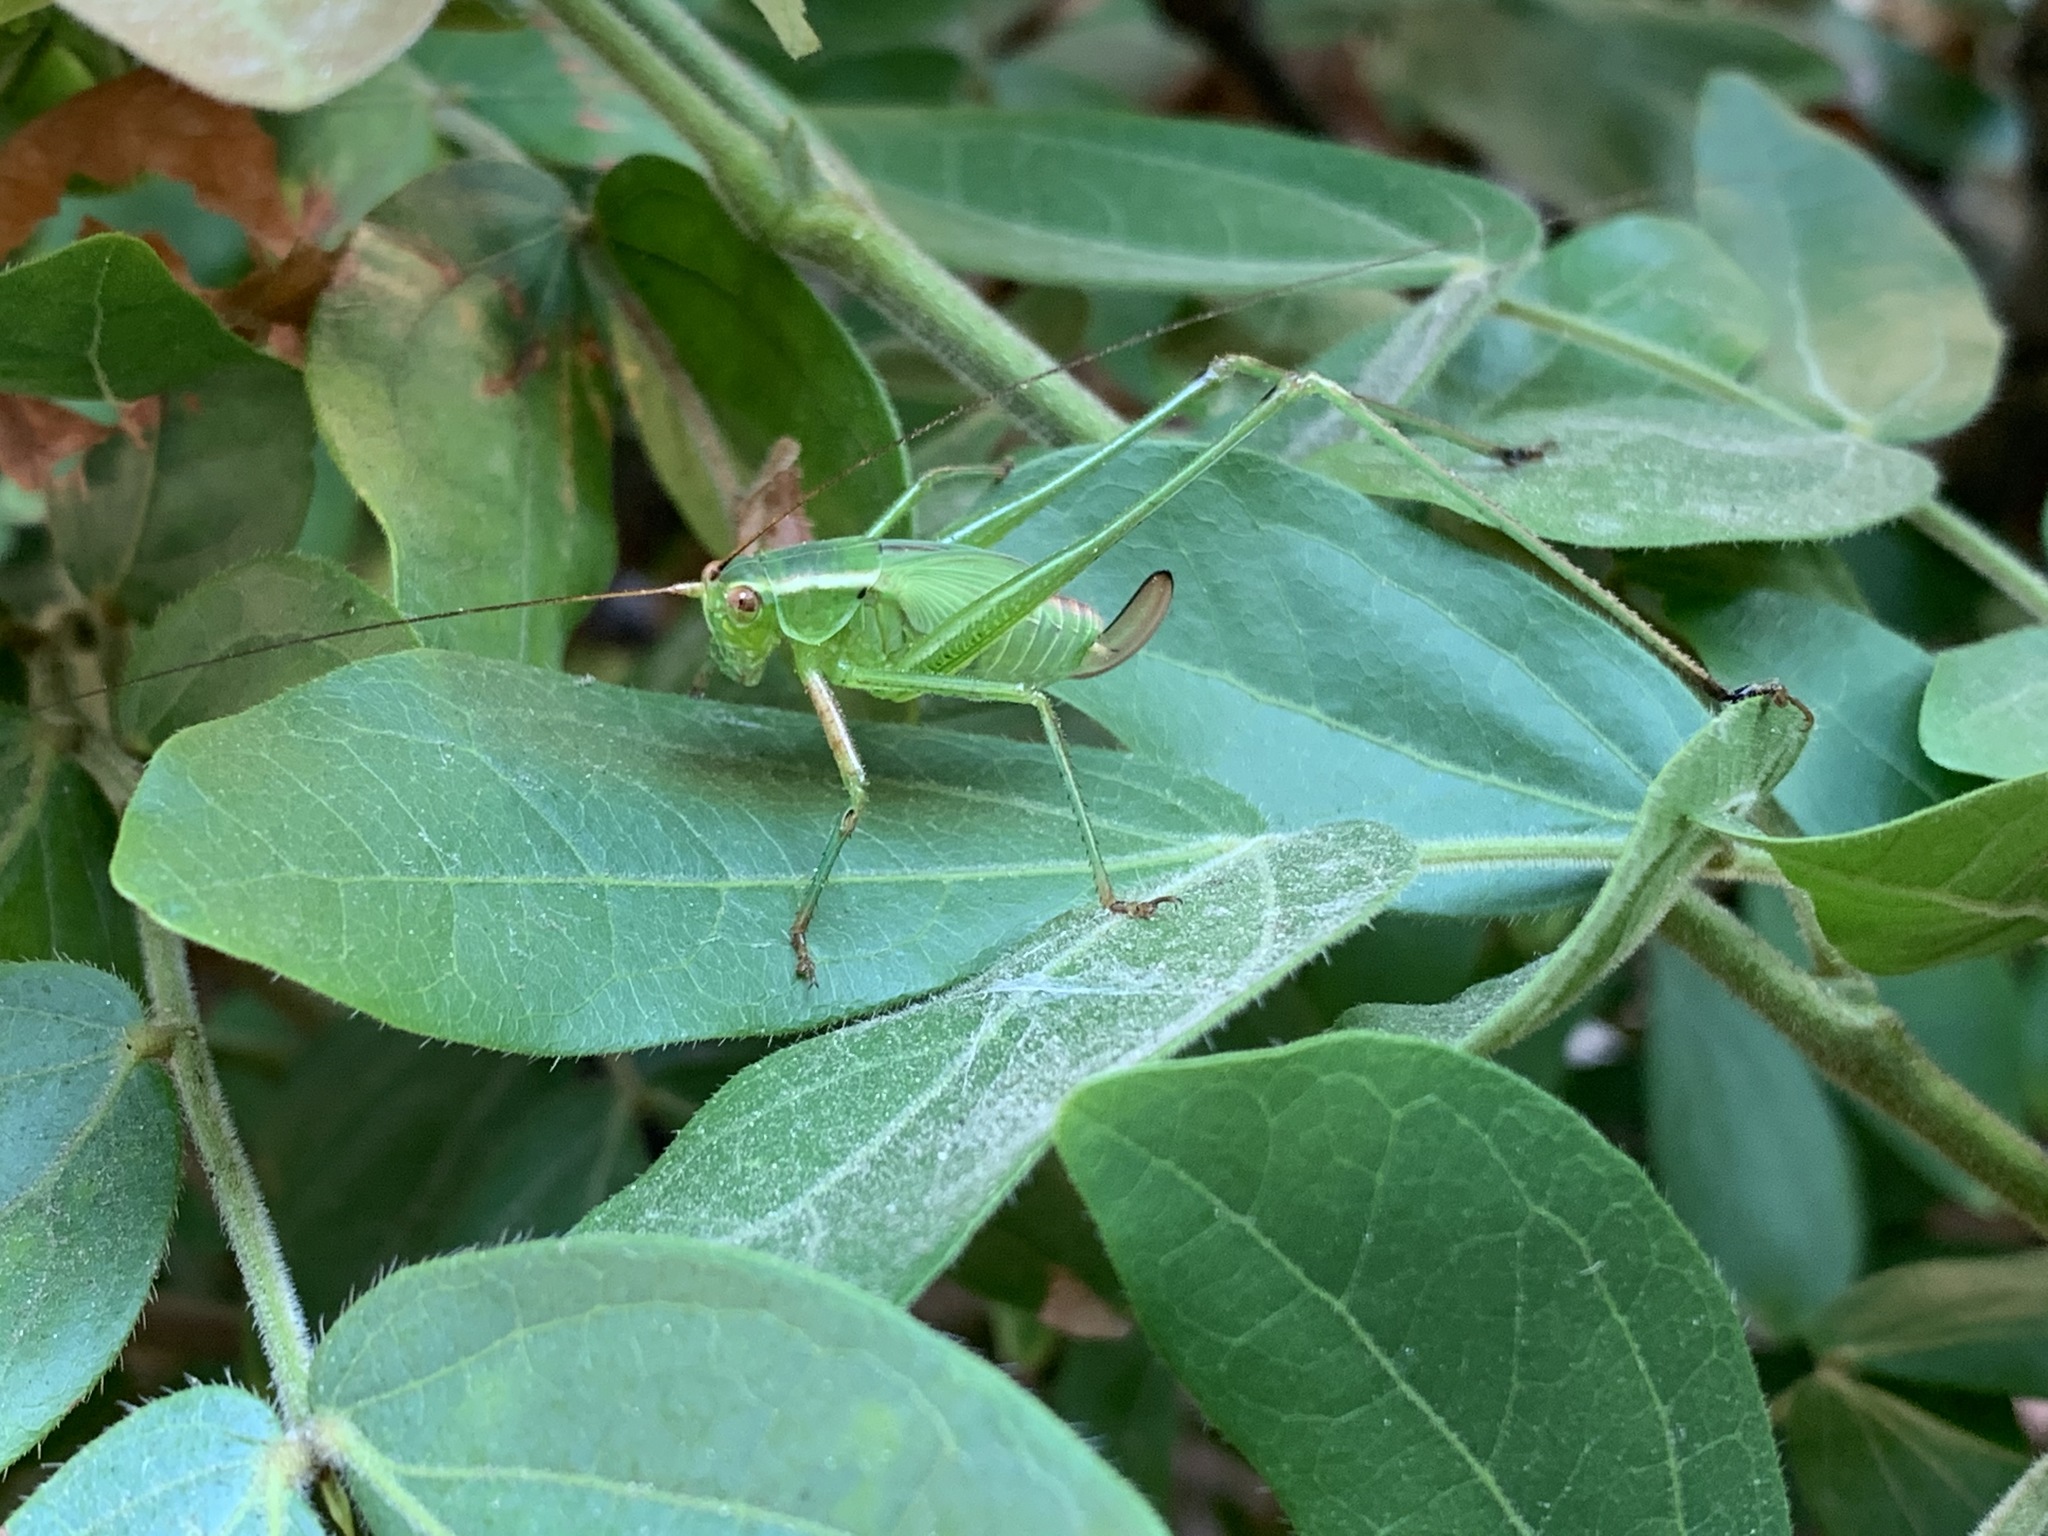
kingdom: Animalia
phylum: Arthropoda
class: Insecta
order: Orthoptera
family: Tettigoniidae
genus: Scudderia
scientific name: Scudderia
